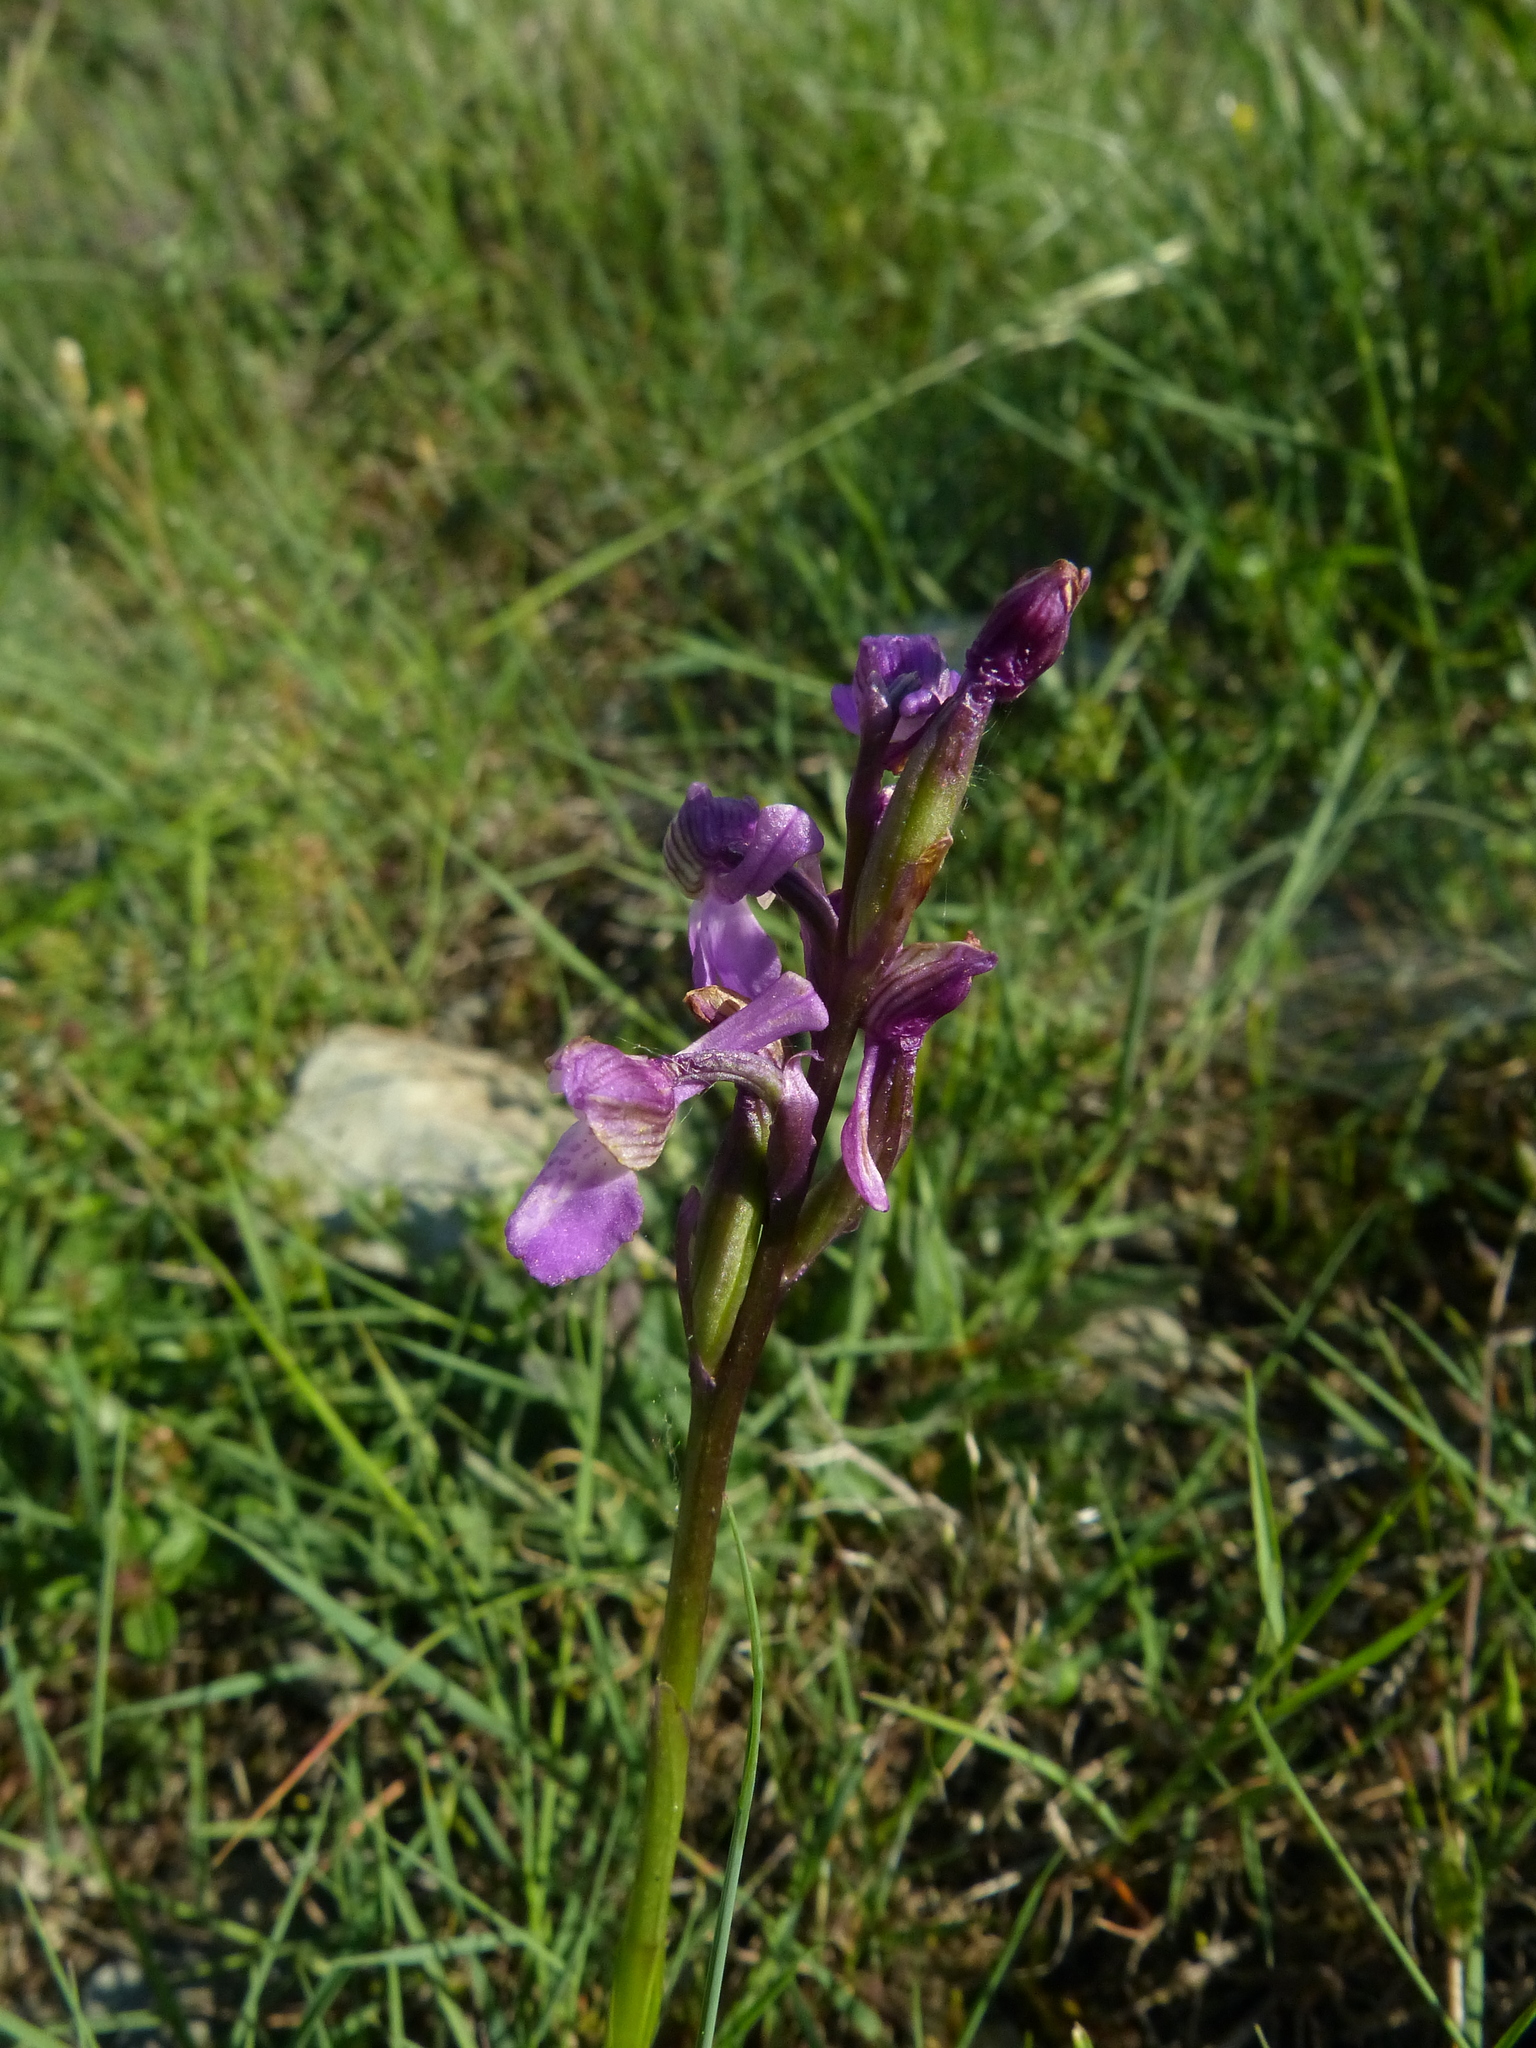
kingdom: Plantae
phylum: Tracheophyta
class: Liliopsida
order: Asparagales
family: Orchidaceae
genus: Anacamptis
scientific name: Anacamptis morio
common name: Green-winged orchid
